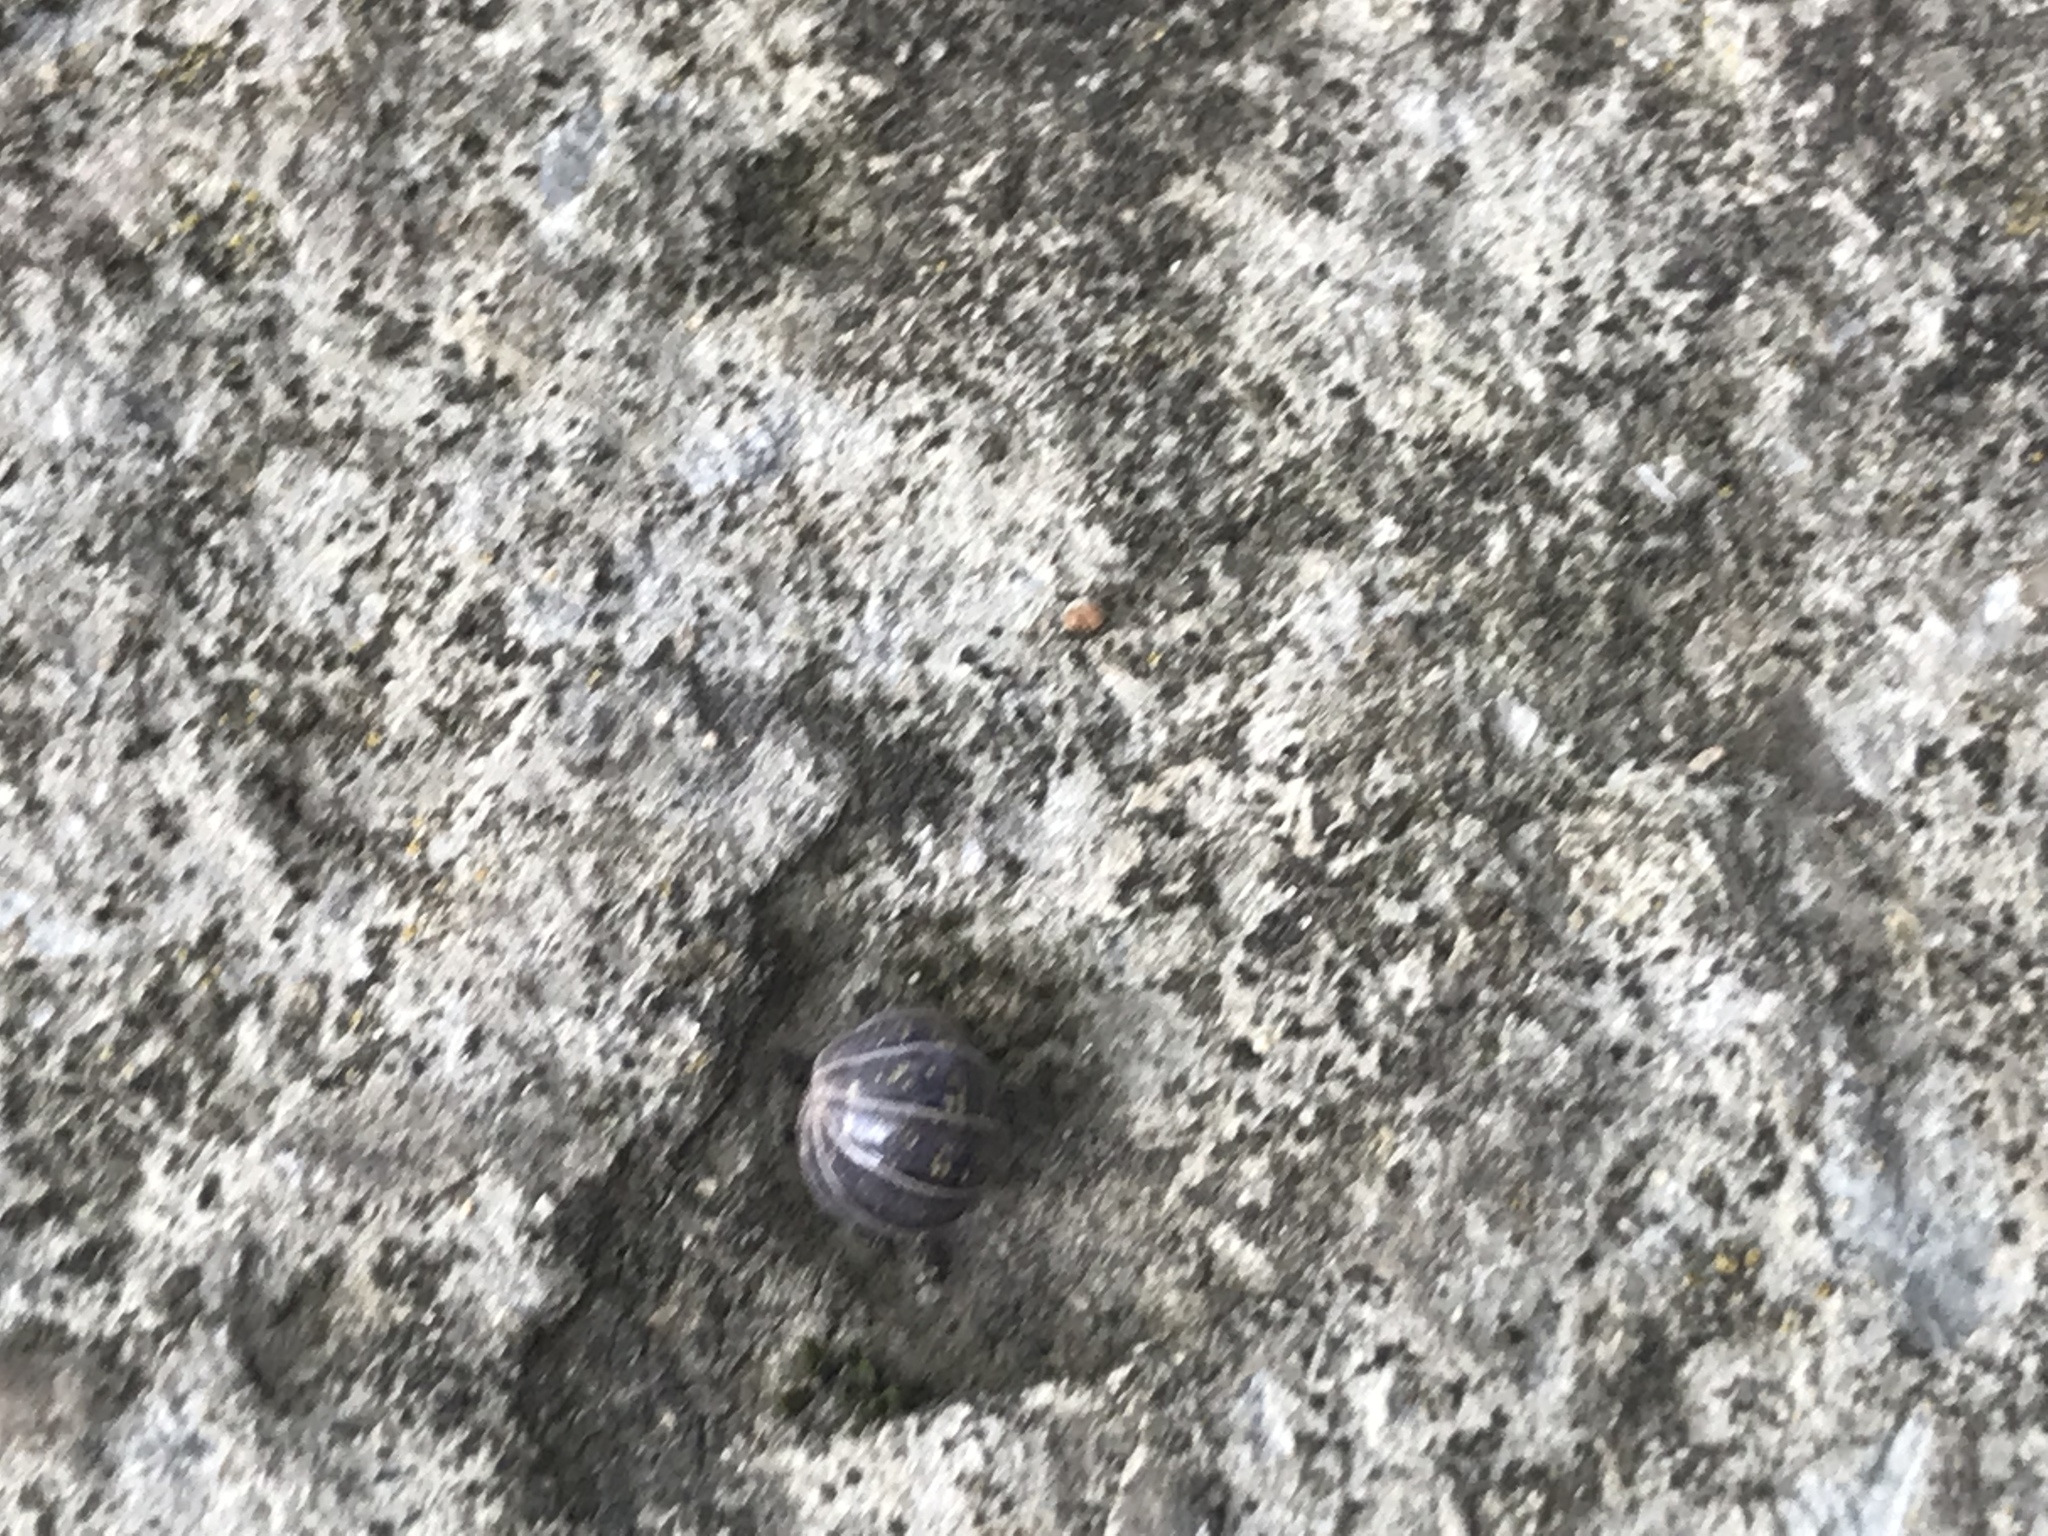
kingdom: Animalia
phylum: Arthropoda
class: Malacostraca
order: Isopoda
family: Armadillidiidae
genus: Armadillidium
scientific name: Armadillidium vulgare
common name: Common pill woodlouse
